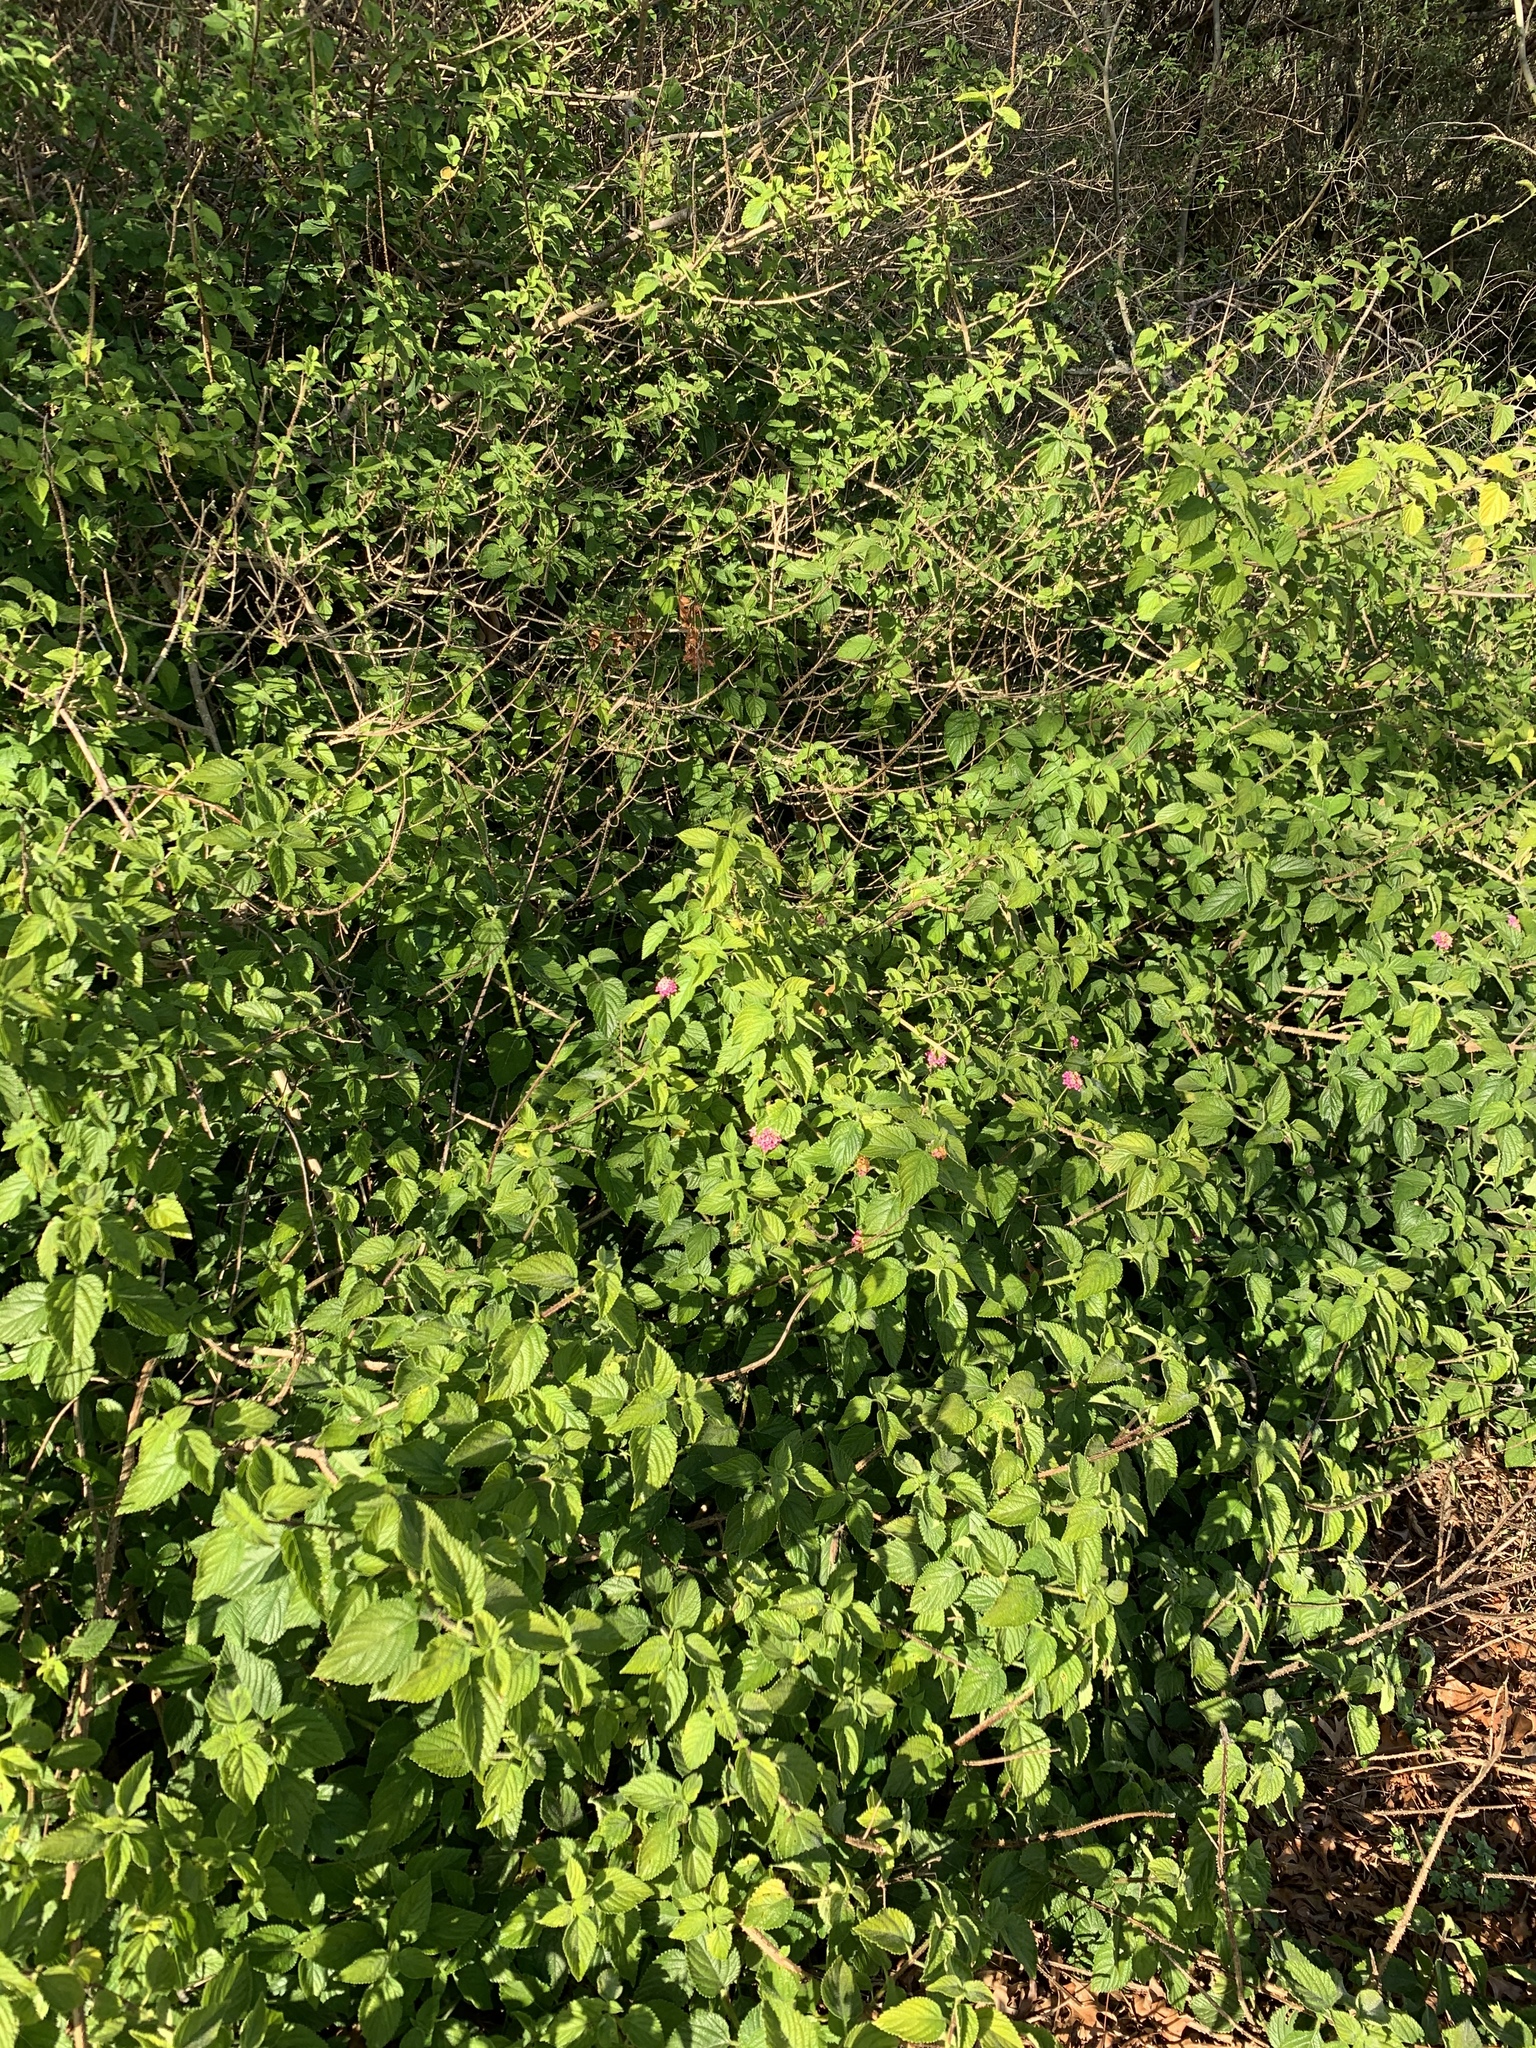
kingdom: Plantae
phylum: Tracheophyta
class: Magnoliopsida
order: Lamiales
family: Verbenaceae
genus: Lantana
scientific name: Lantana camara
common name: Lantana
